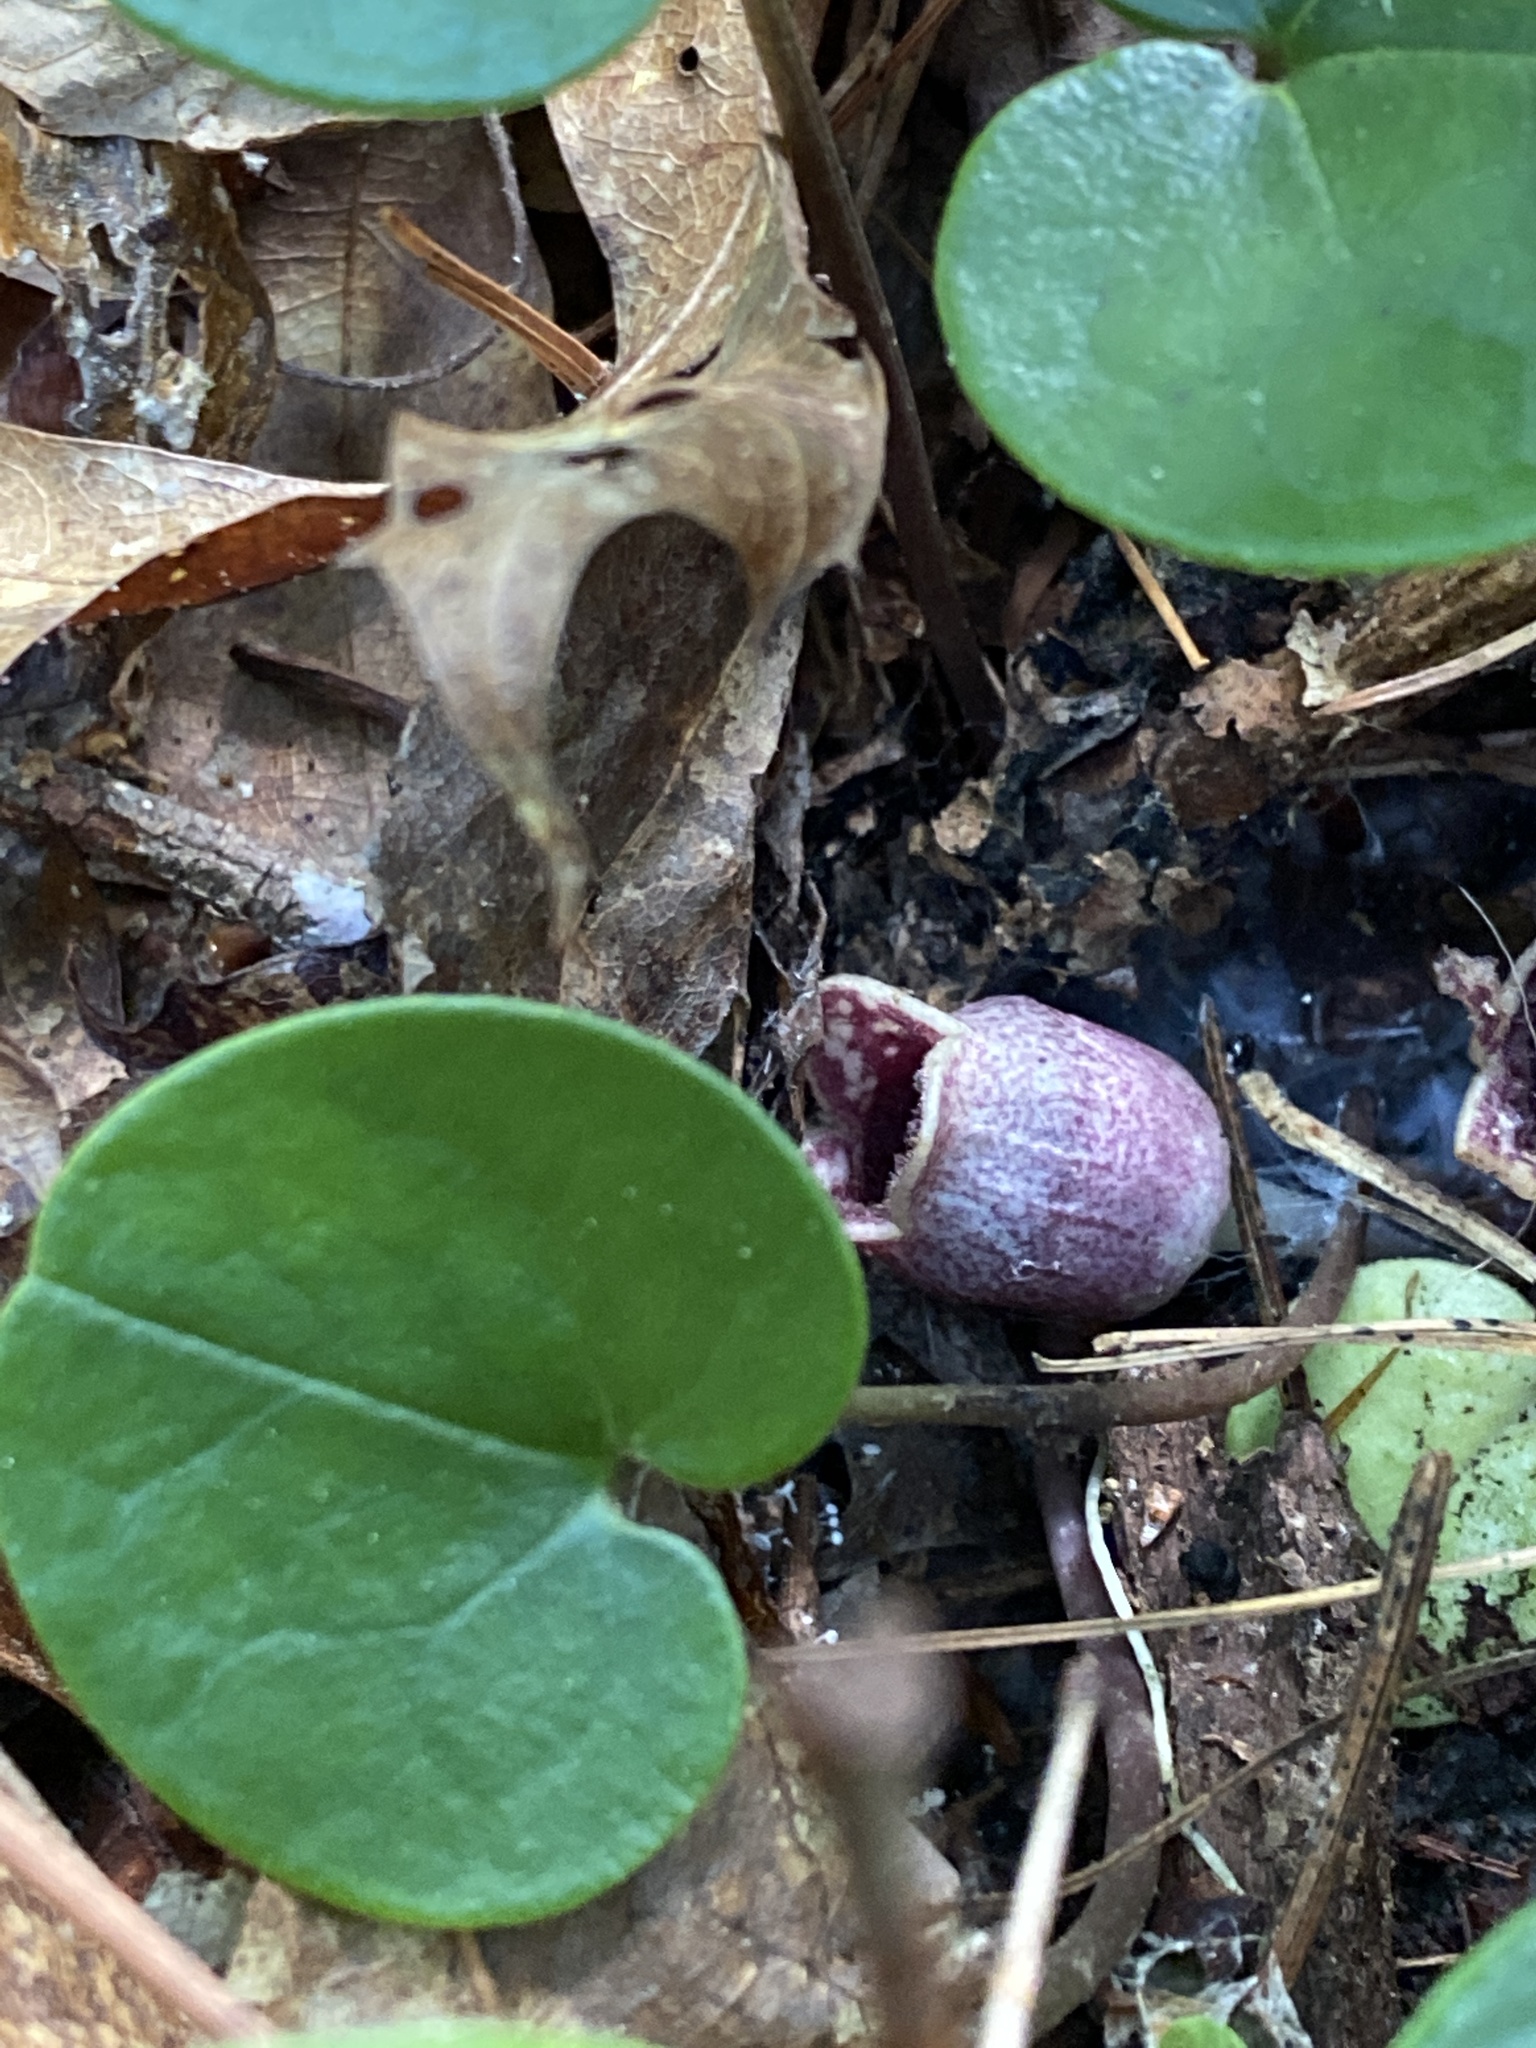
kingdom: Plantae
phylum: Tracheophyta
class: Magnoliopsida
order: Piperales
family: Aristolochiaceae
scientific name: Aristolochiaceae
